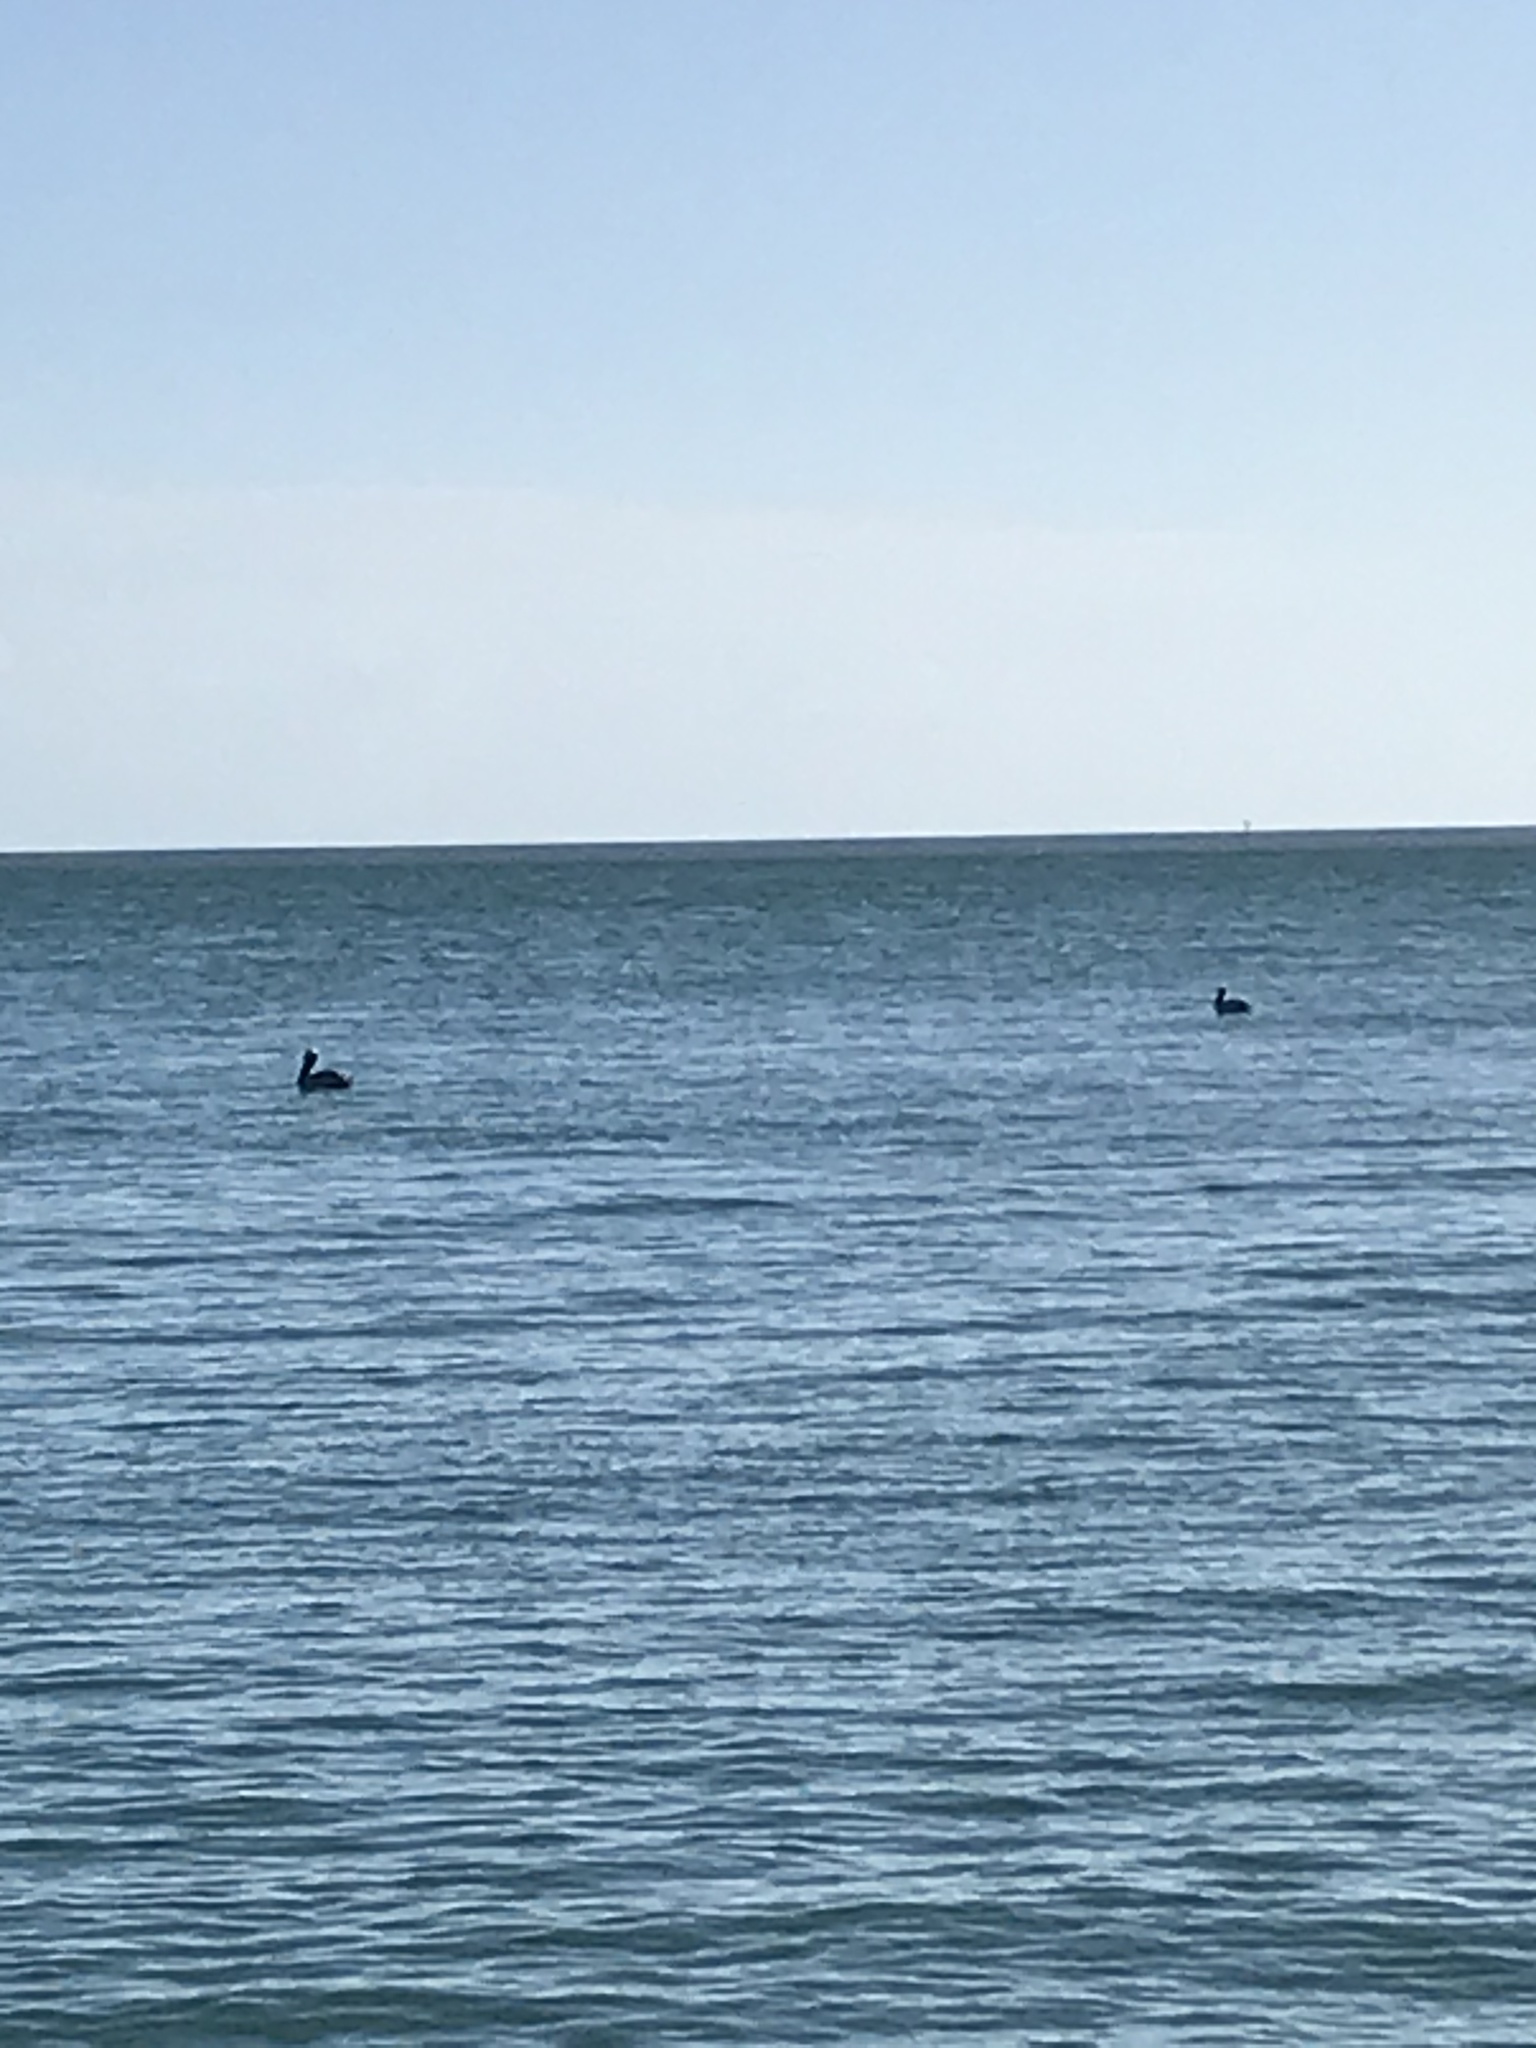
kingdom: Animalia
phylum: Chordata
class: Aves
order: Pelecaniformes
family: Pelecanidae
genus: Pelecanus
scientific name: Pelecanus occidentalis
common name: Brown pelican
